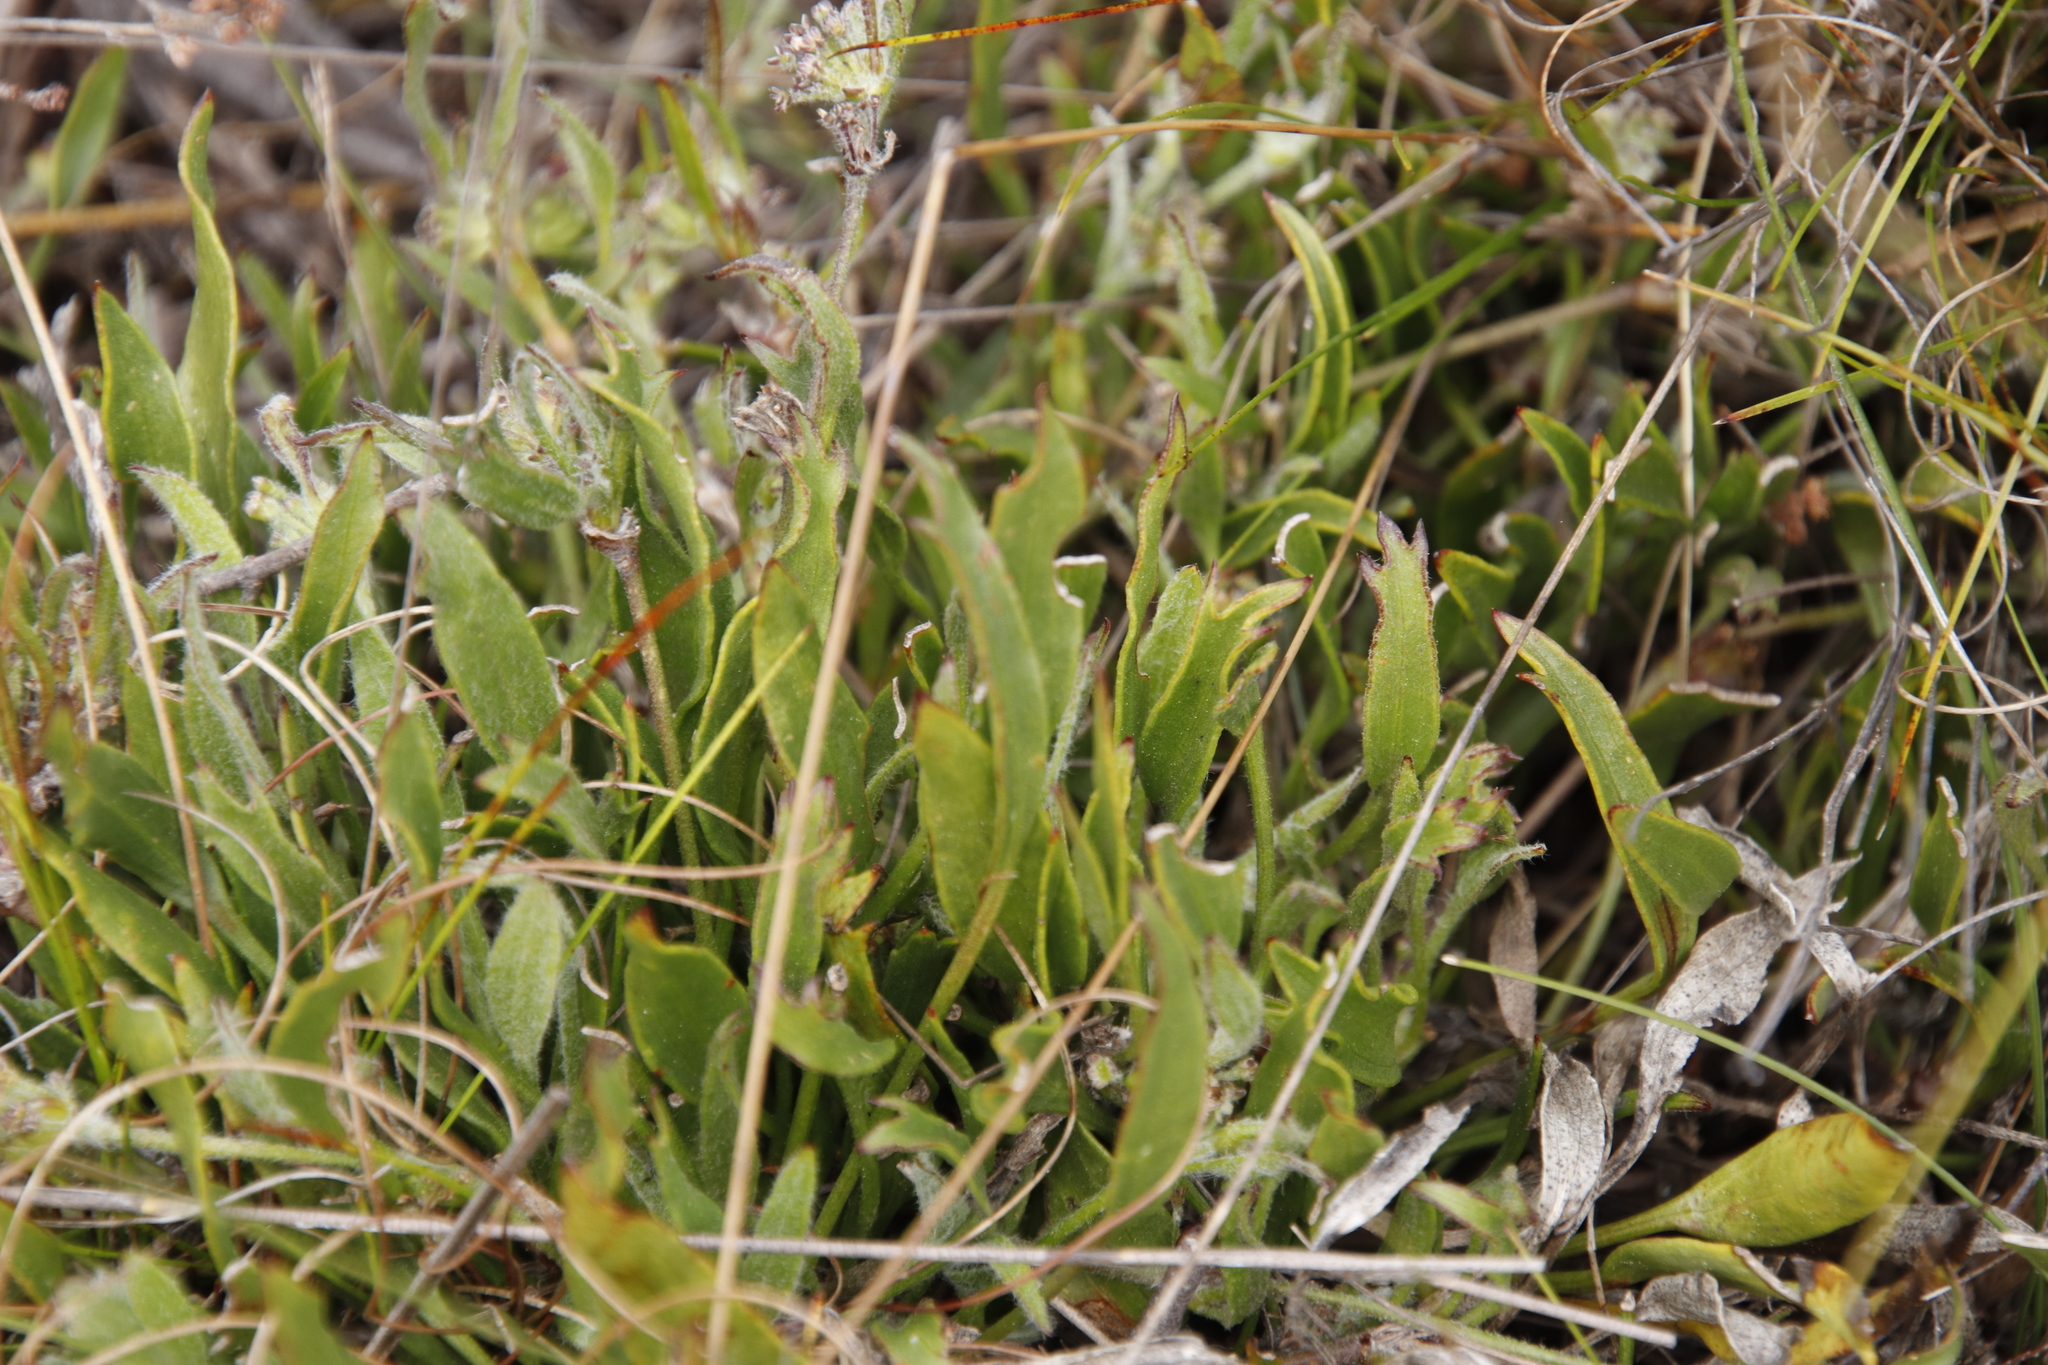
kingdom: Plantae
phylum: Tracheophyta
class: Magnoliopsida
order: Apiales
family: Apiaceae
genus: Centella
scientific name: Centella glabrata
